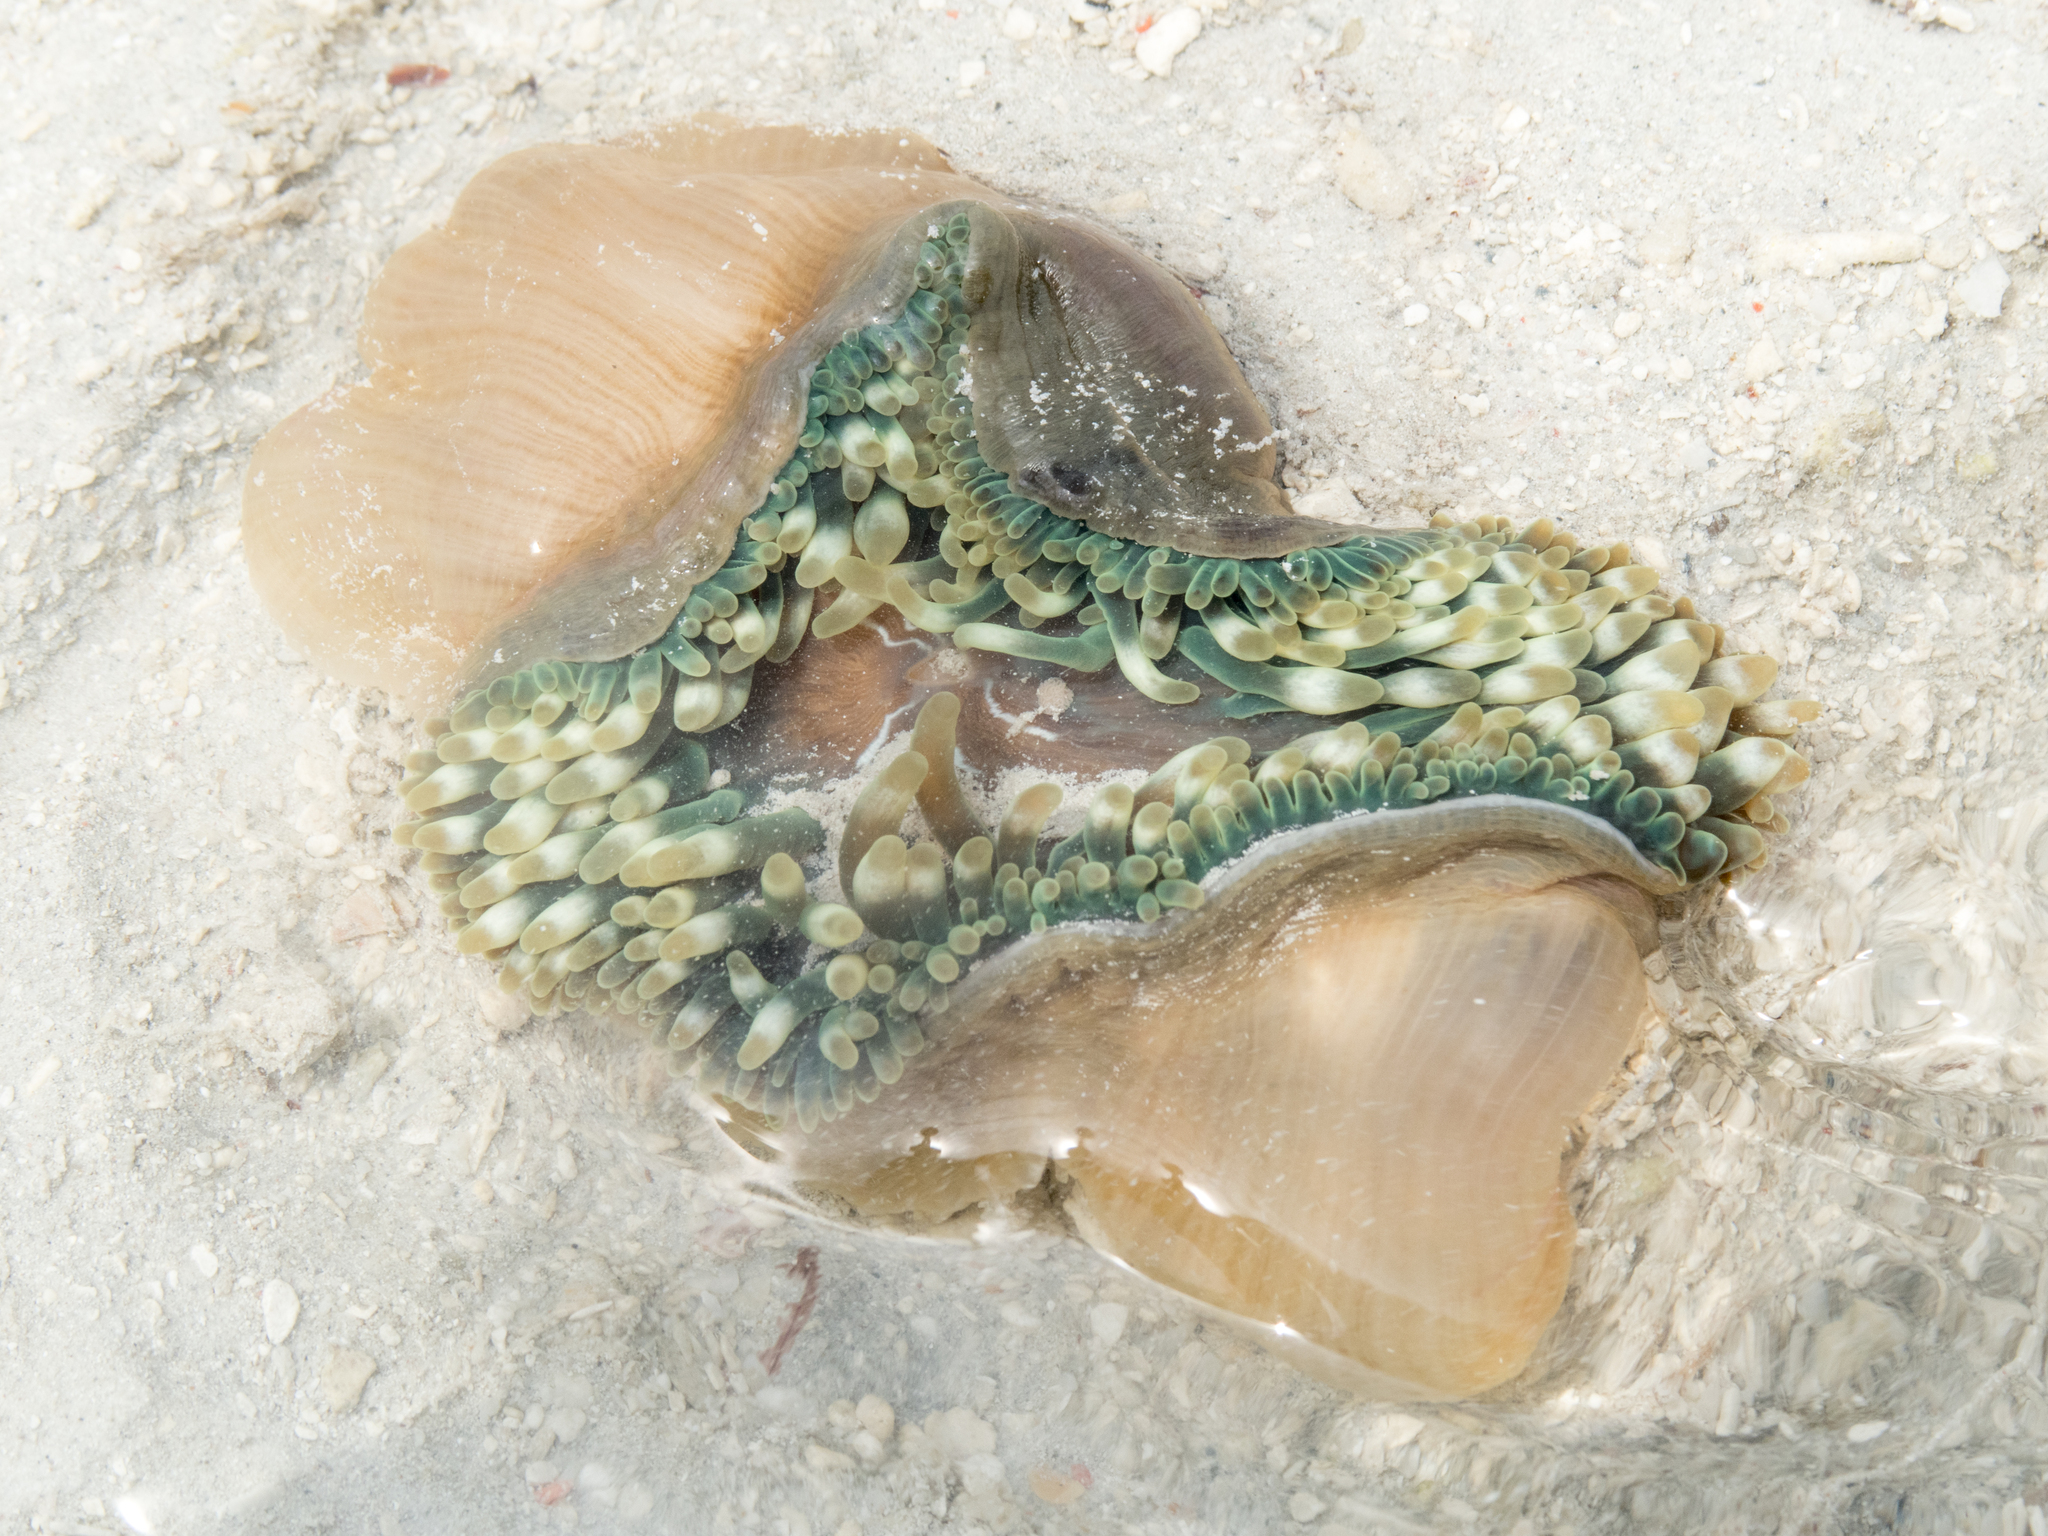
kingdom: Animalia
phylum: Cnidaria
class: Anthozoa
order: Actiniaria
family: Actiniidae
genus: Entacmaea
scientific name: Entacmaea quadricolor
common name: Bulb tentacle sea anemone
